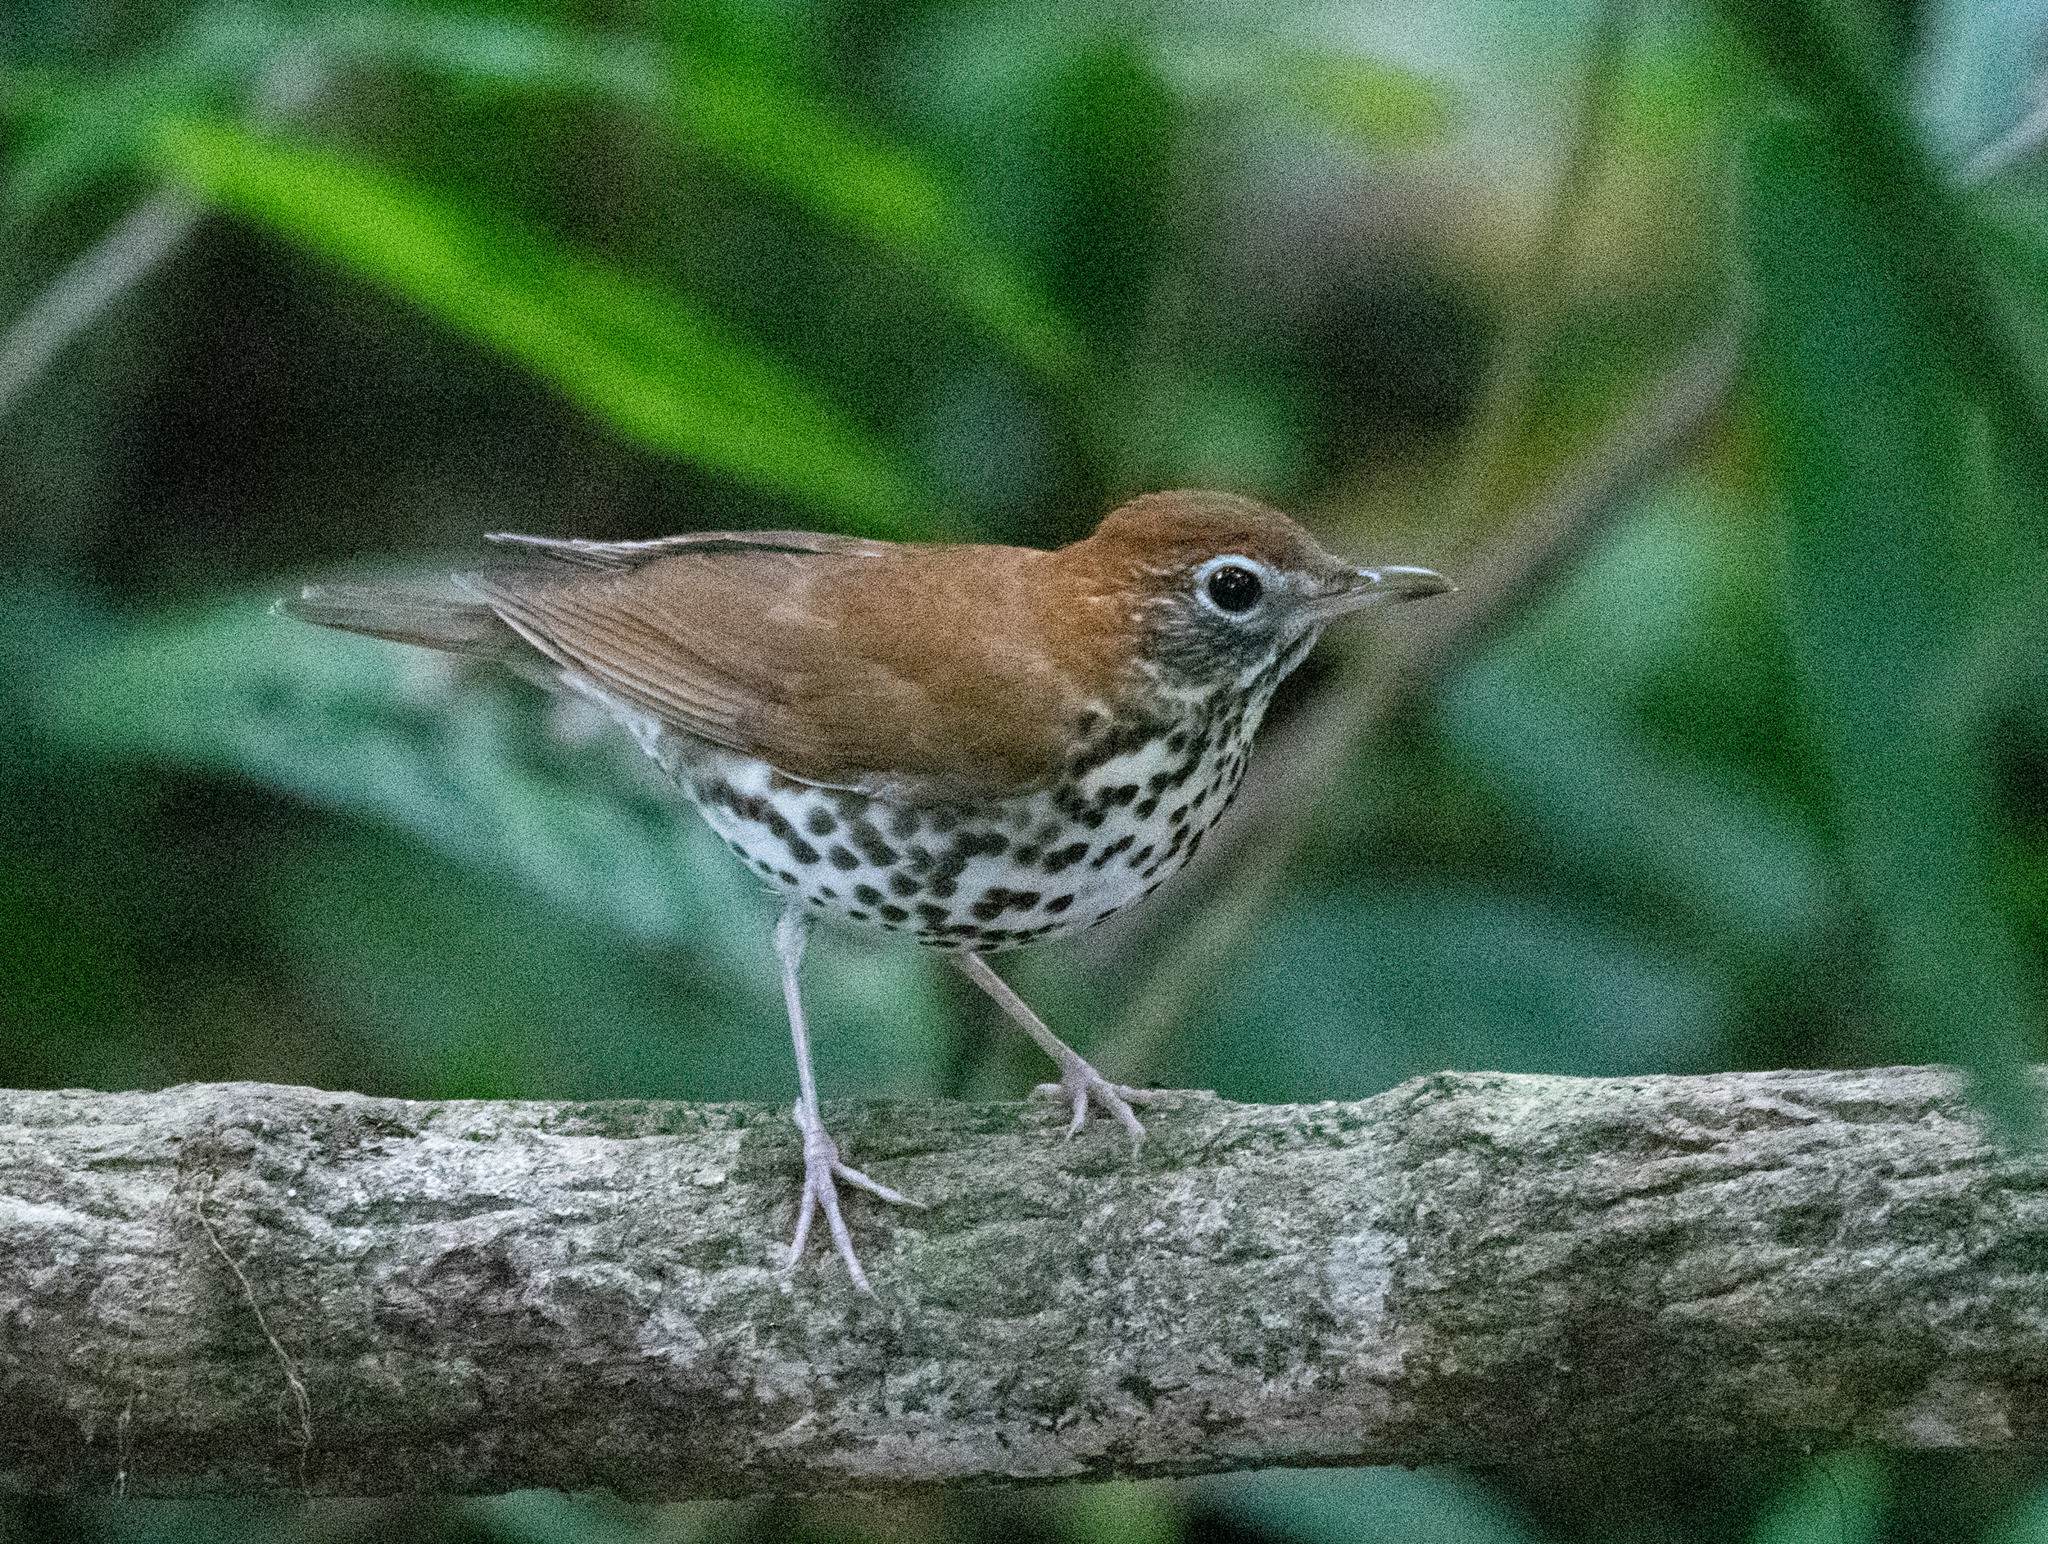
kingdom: Animalia
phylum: Chordata
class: Aves
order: Passeriformes
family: Turdidae
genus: Hylocichla
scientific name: Hylocichla mustelina
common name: Wood thrush
